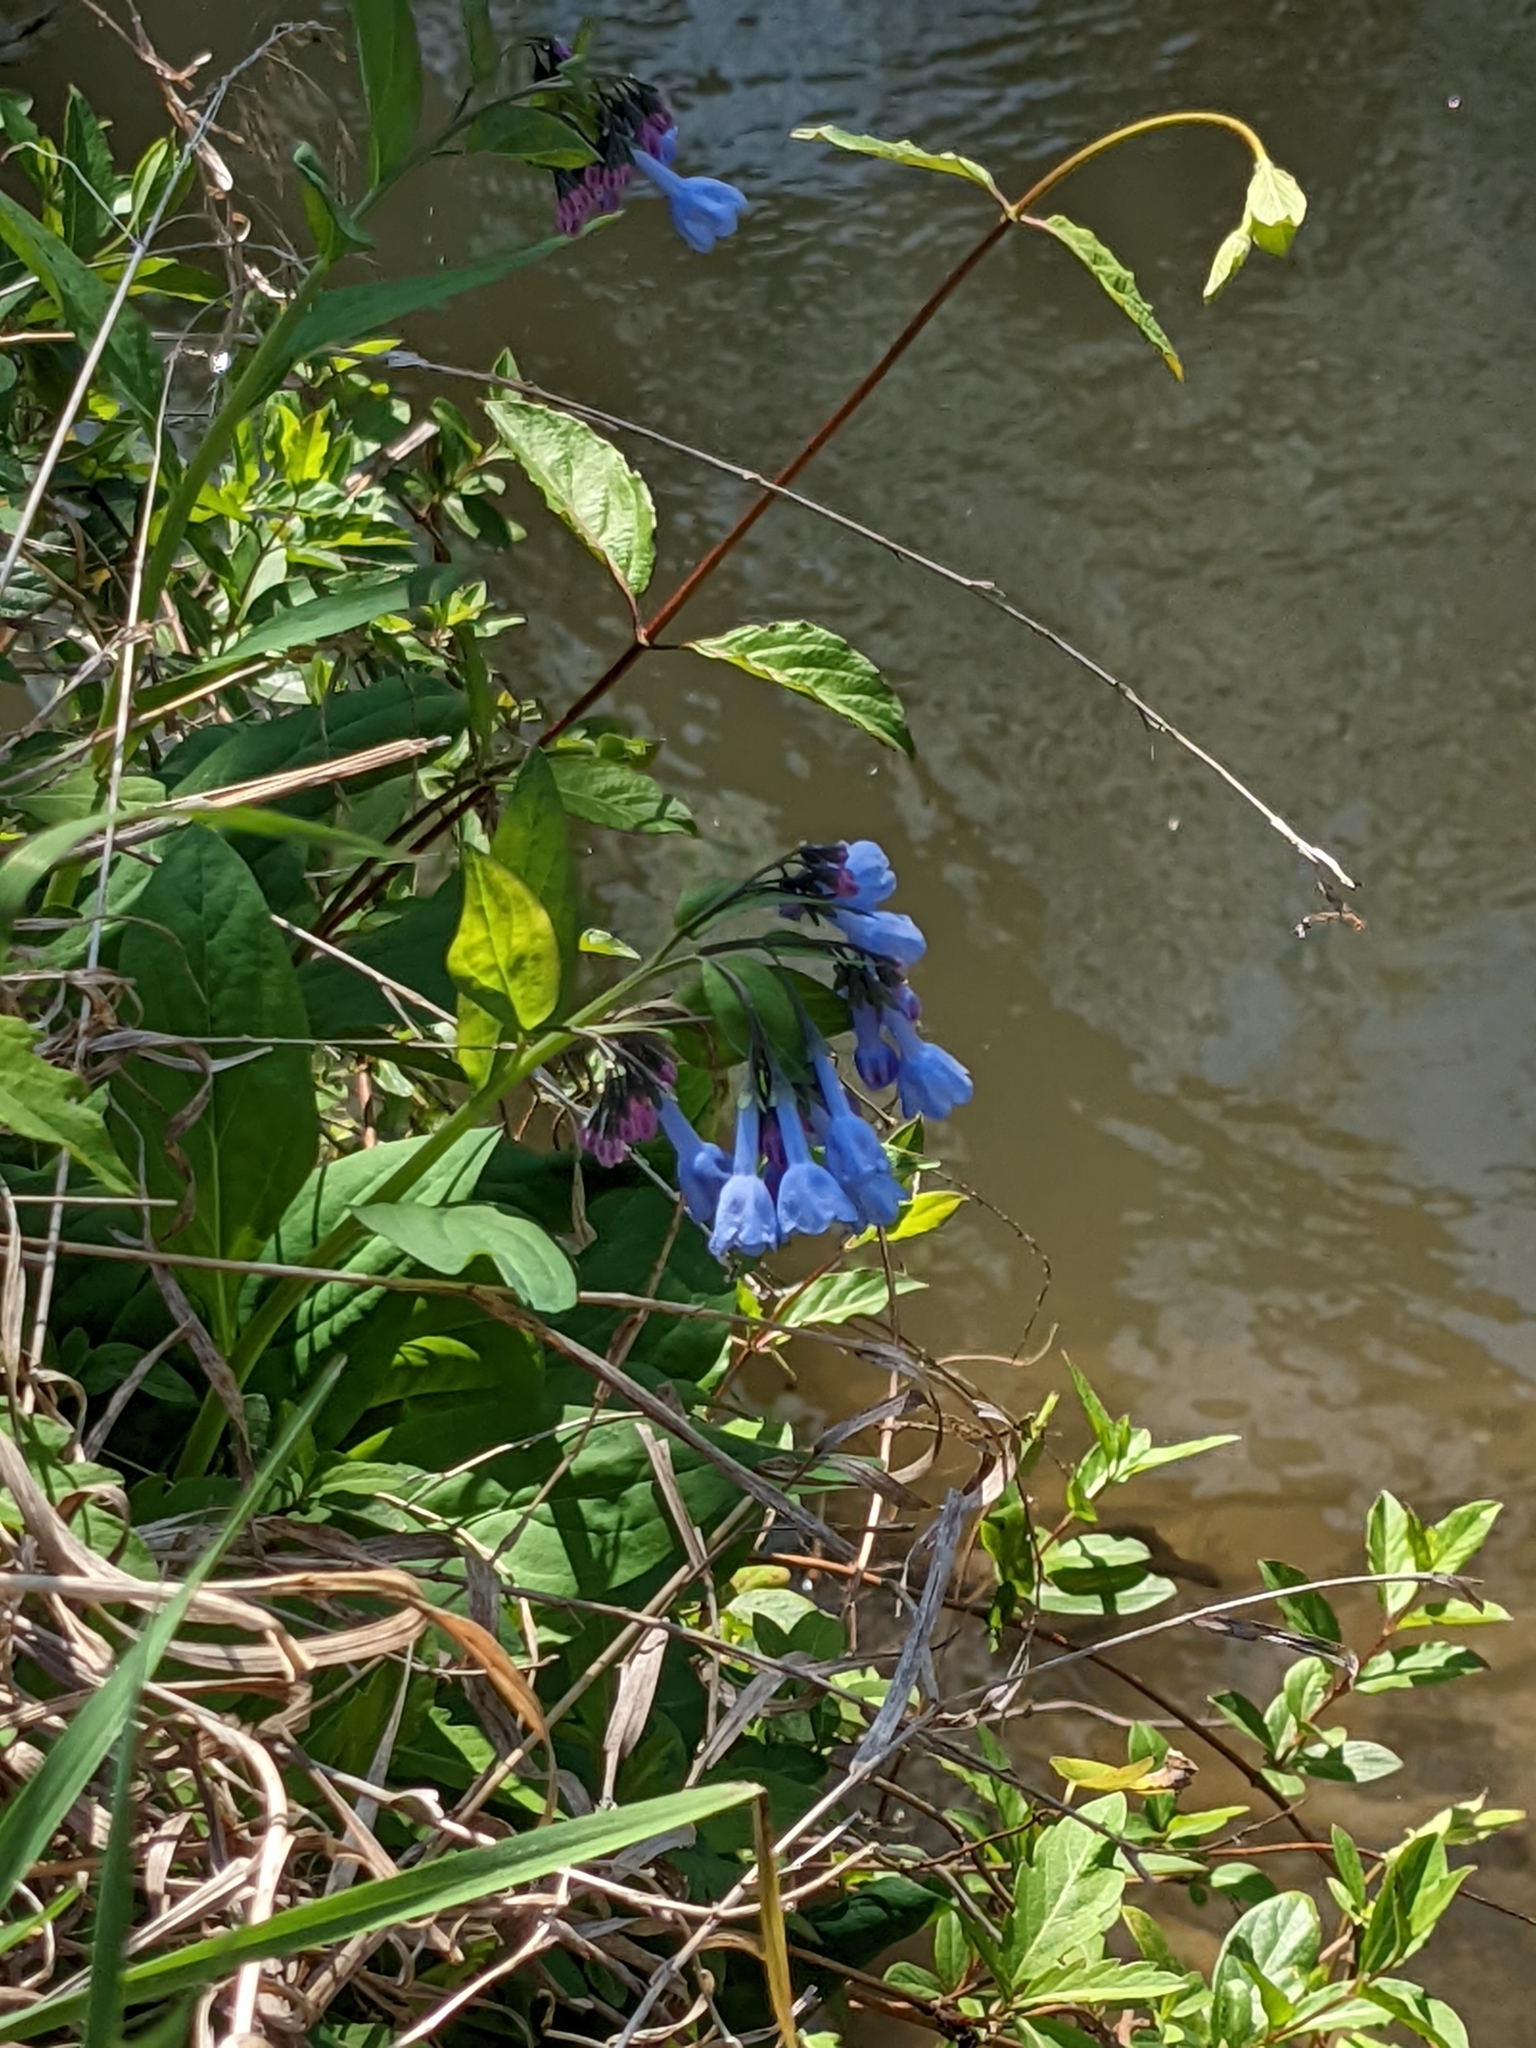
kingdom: Plantae
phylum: Tracheophyta
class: Magnoliopsida
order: Boraginales
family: Boraginaceae
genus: Mertensia
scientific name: Mertensia virginica
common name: Virginia bluebells
